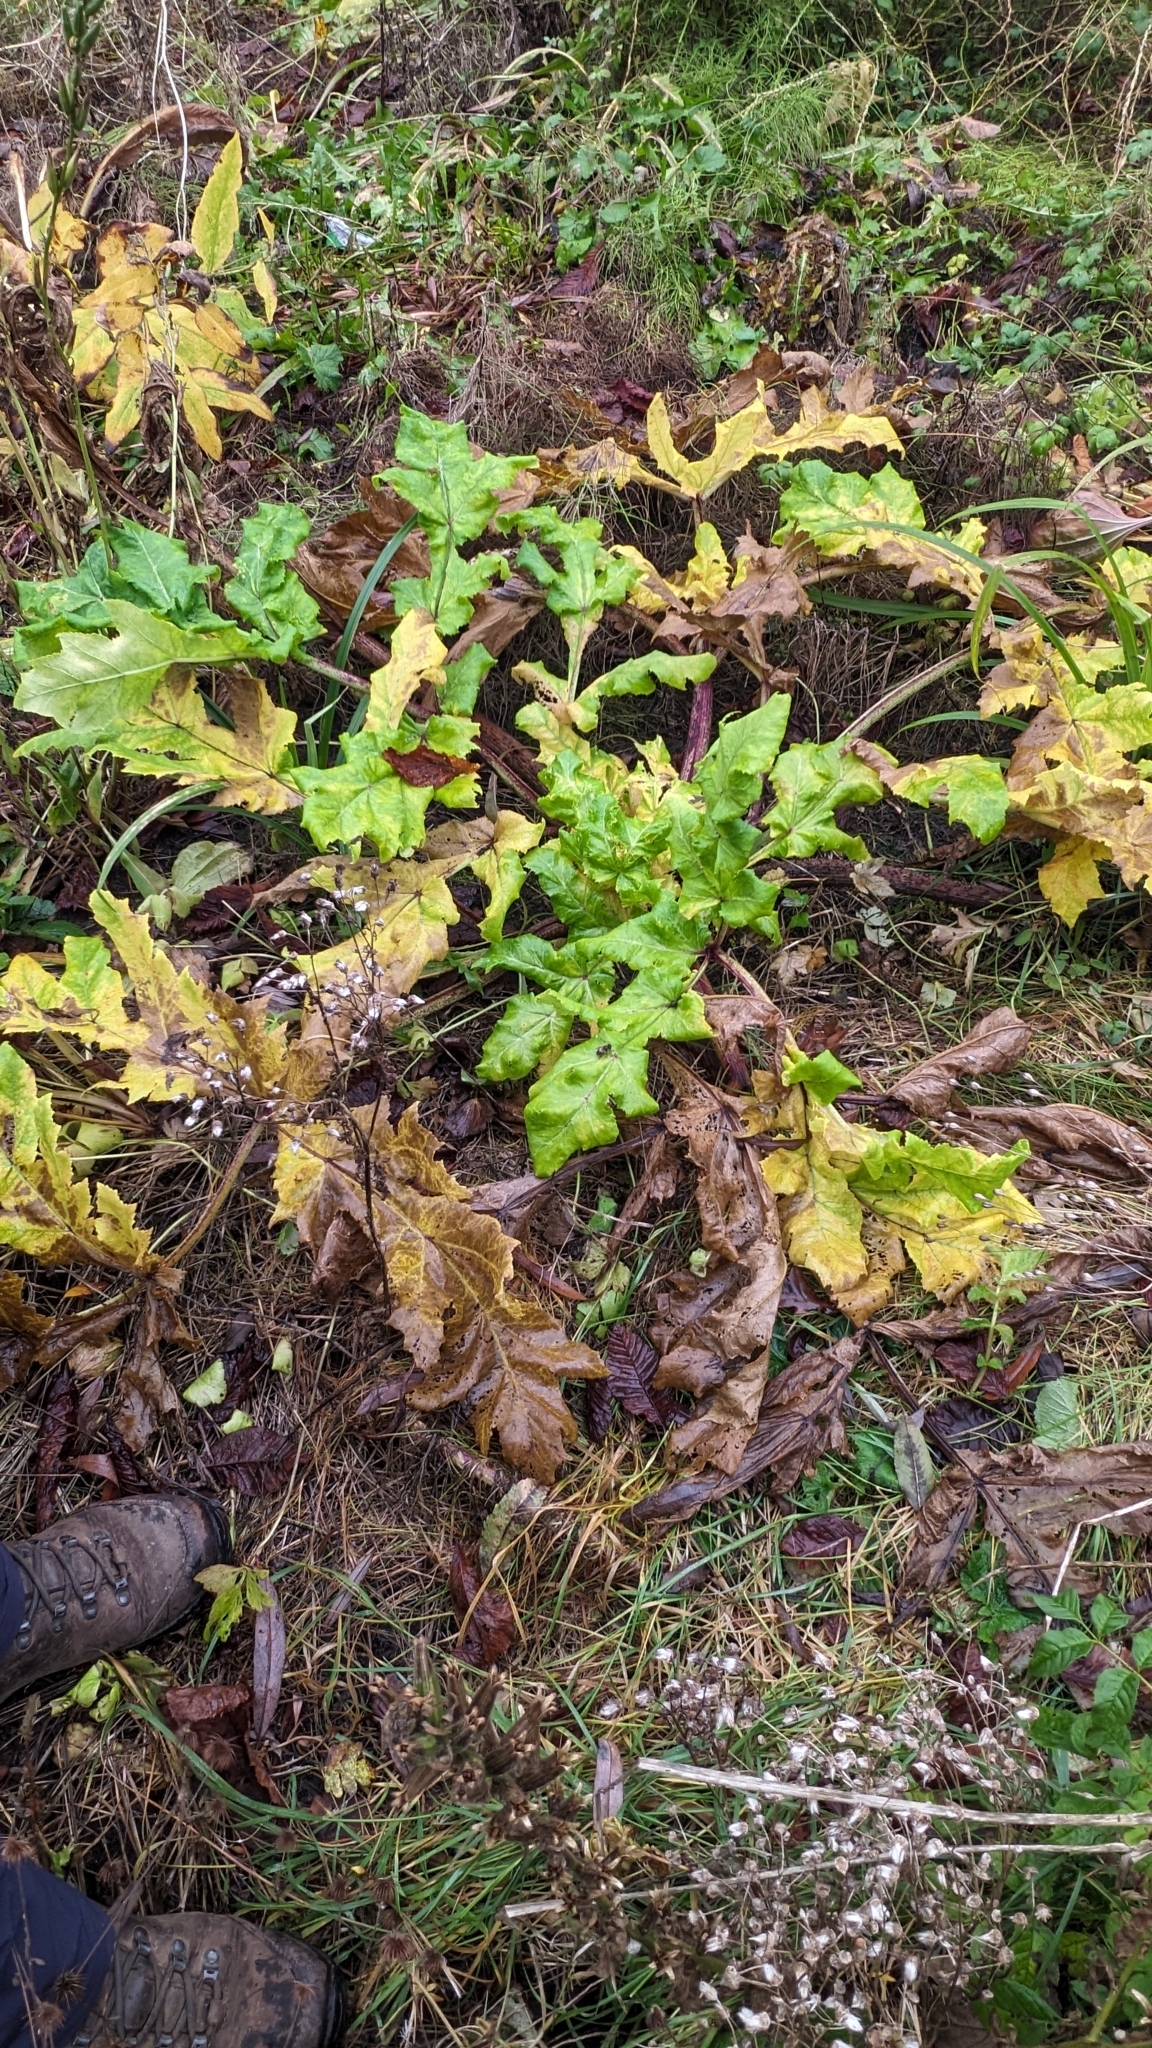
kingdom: Plantae
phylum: Tracheophyta
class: Magnoliopsida
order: Apiales
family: Apiaceae
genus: Heracleum
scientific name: Heracleum mantegazzianum
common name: Giant hogweed
